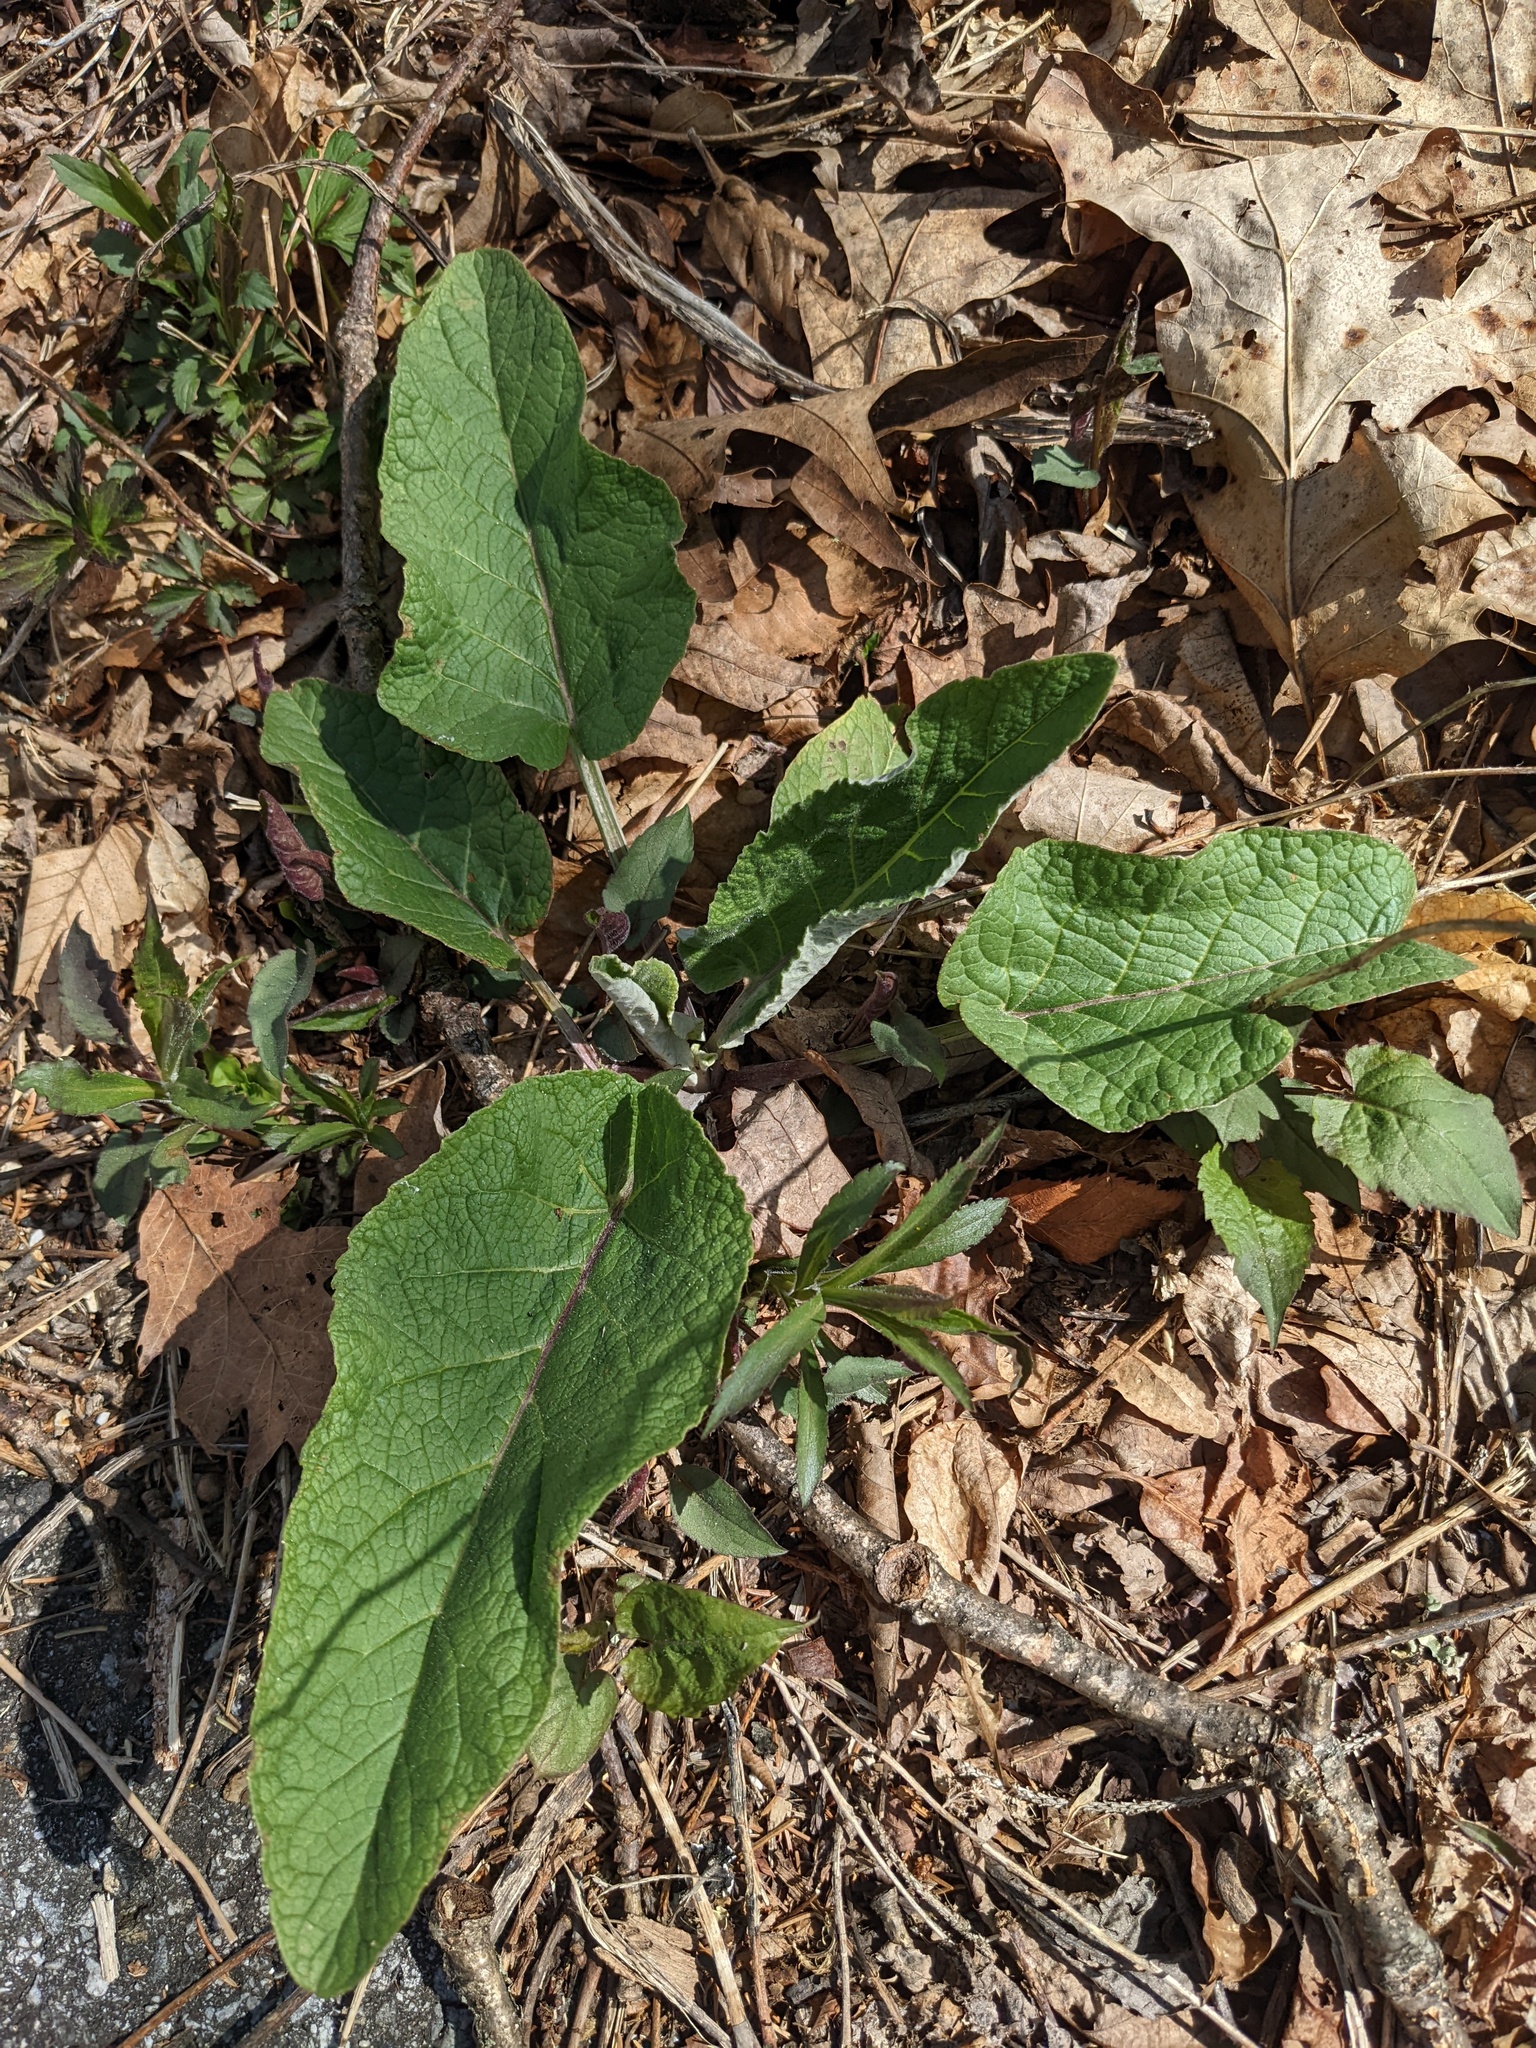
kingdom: Plantae
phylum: Tracheophyta
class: Liliopsida
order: Alismatales
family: Araceae
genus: Symplocarpus
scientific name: Symplocarpus foetidus
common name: Eastern skunk cabbage
